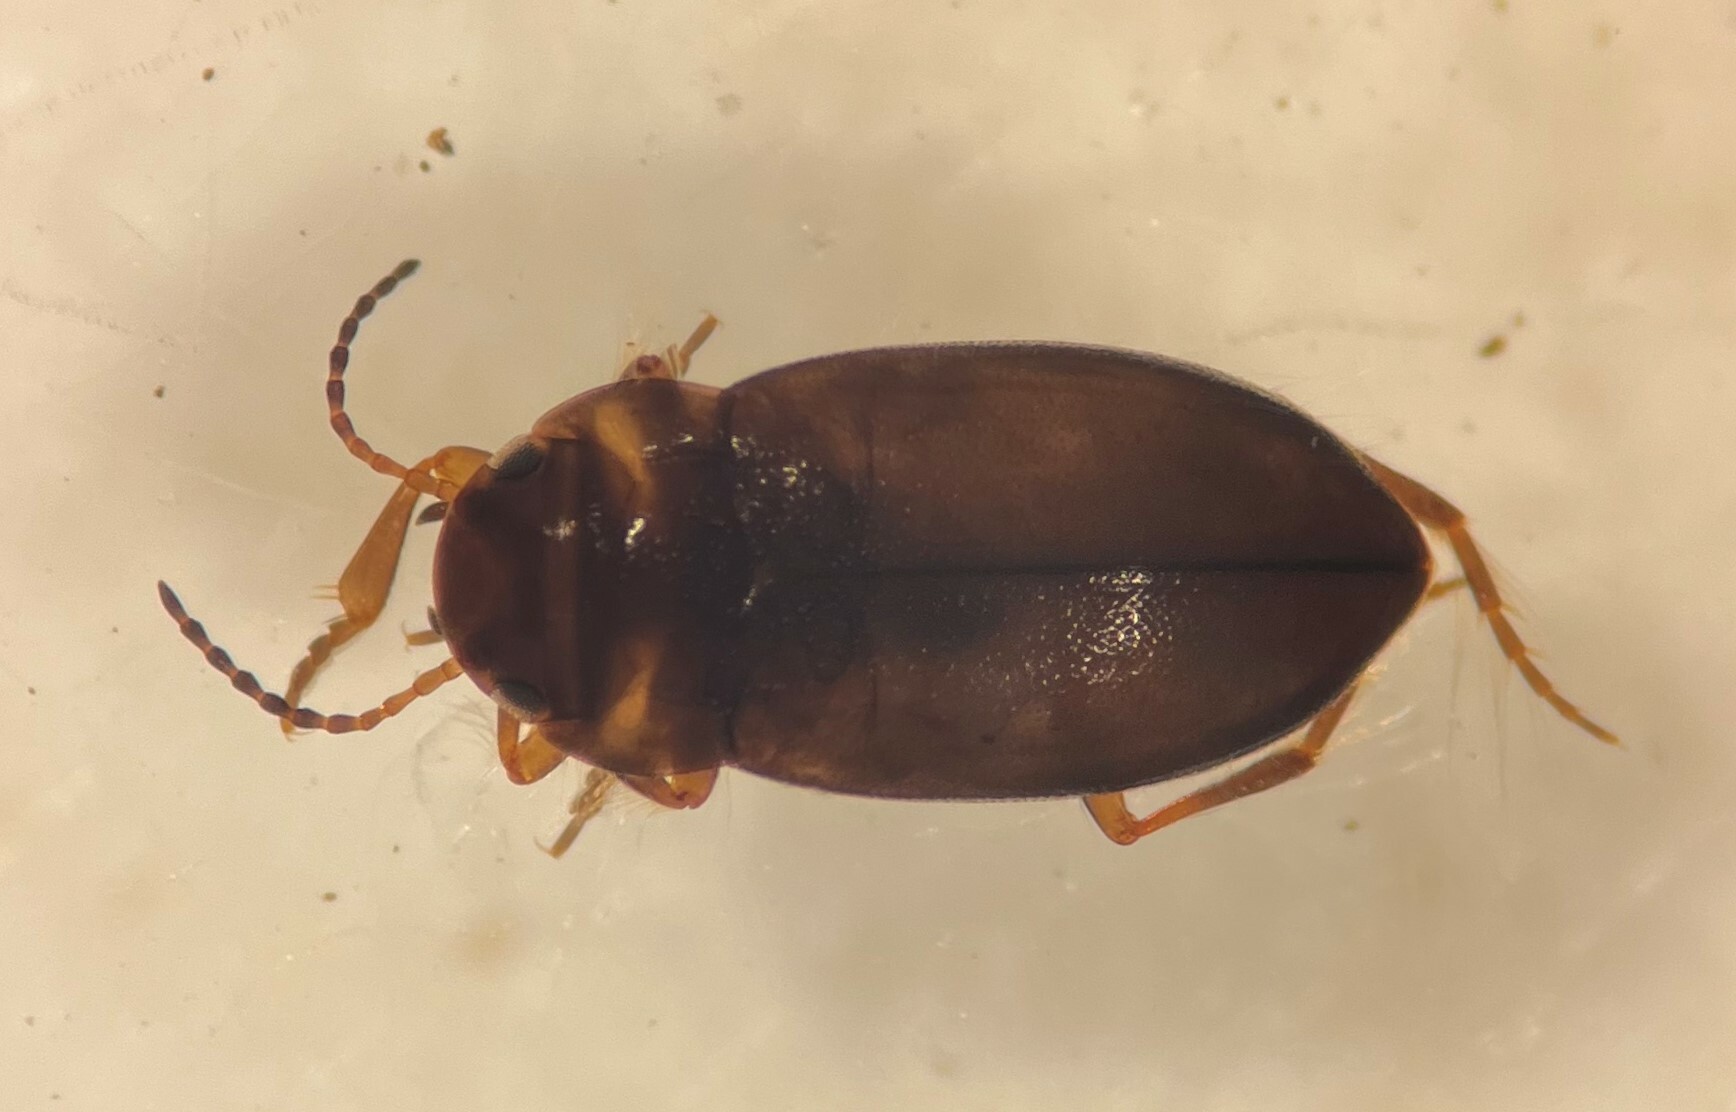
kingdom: Animalia
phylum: Arthropoda
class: Insecta
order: Coleoptera
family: Dytiscidae
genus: Crinodessus
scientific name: Crinodessus amyae
